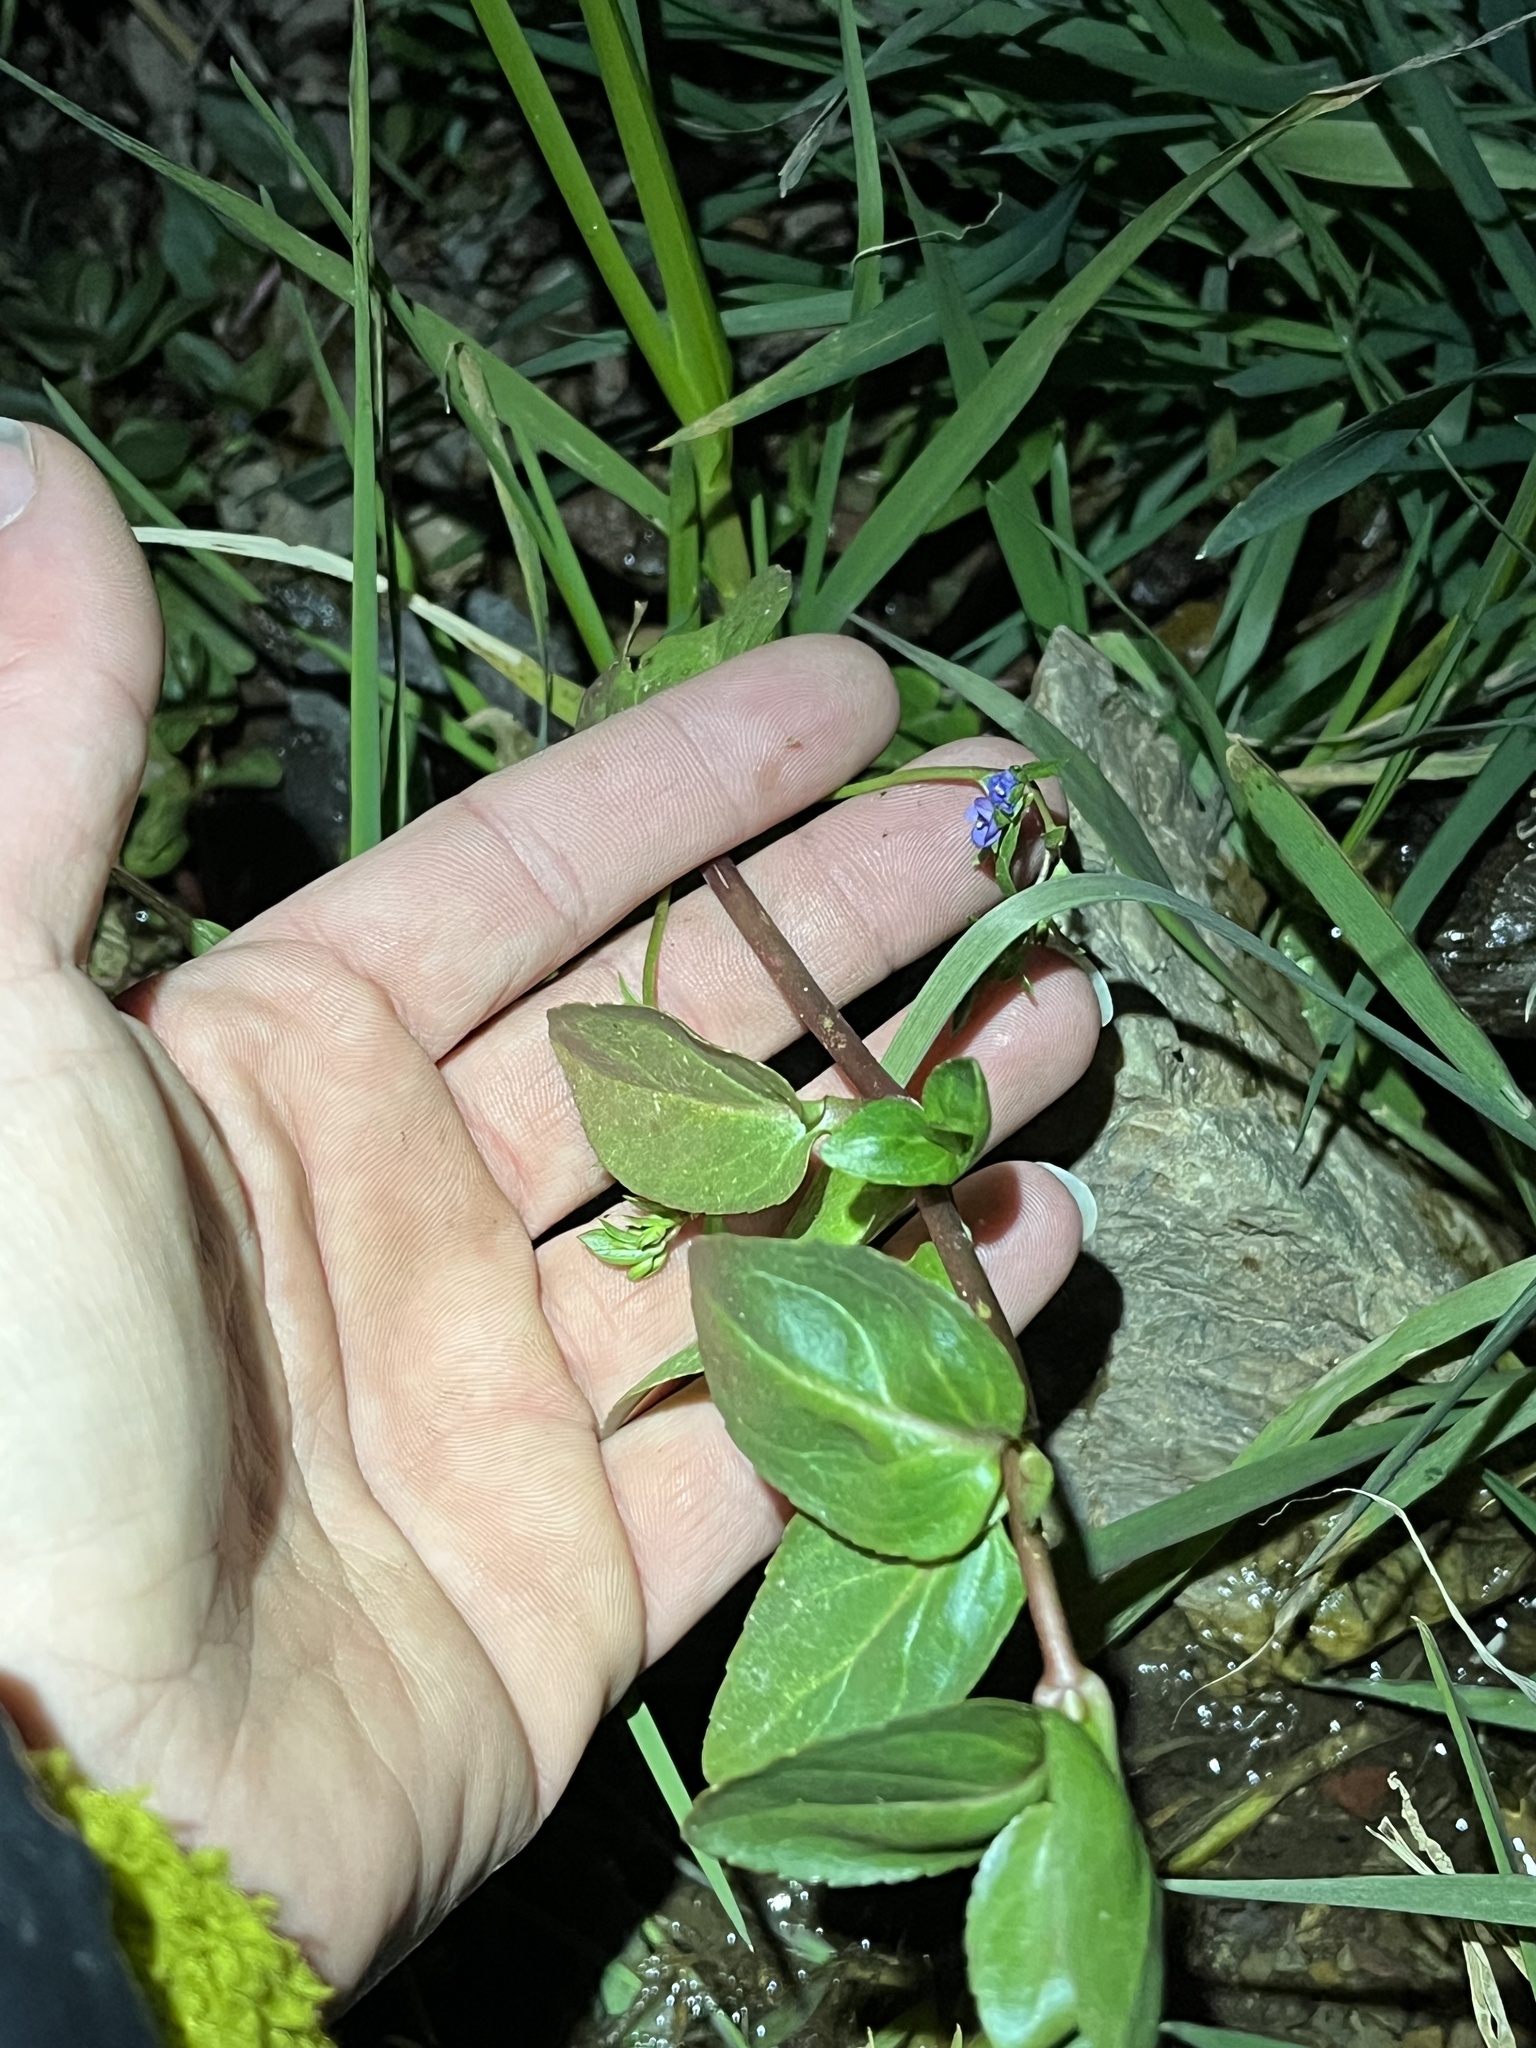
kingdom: Plantae
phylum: Tracheophyta
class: Magnoliopsida
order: Lamiales
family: Plantaginaceae
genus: Veronica
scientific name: Veronica americana
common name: American brooklime
